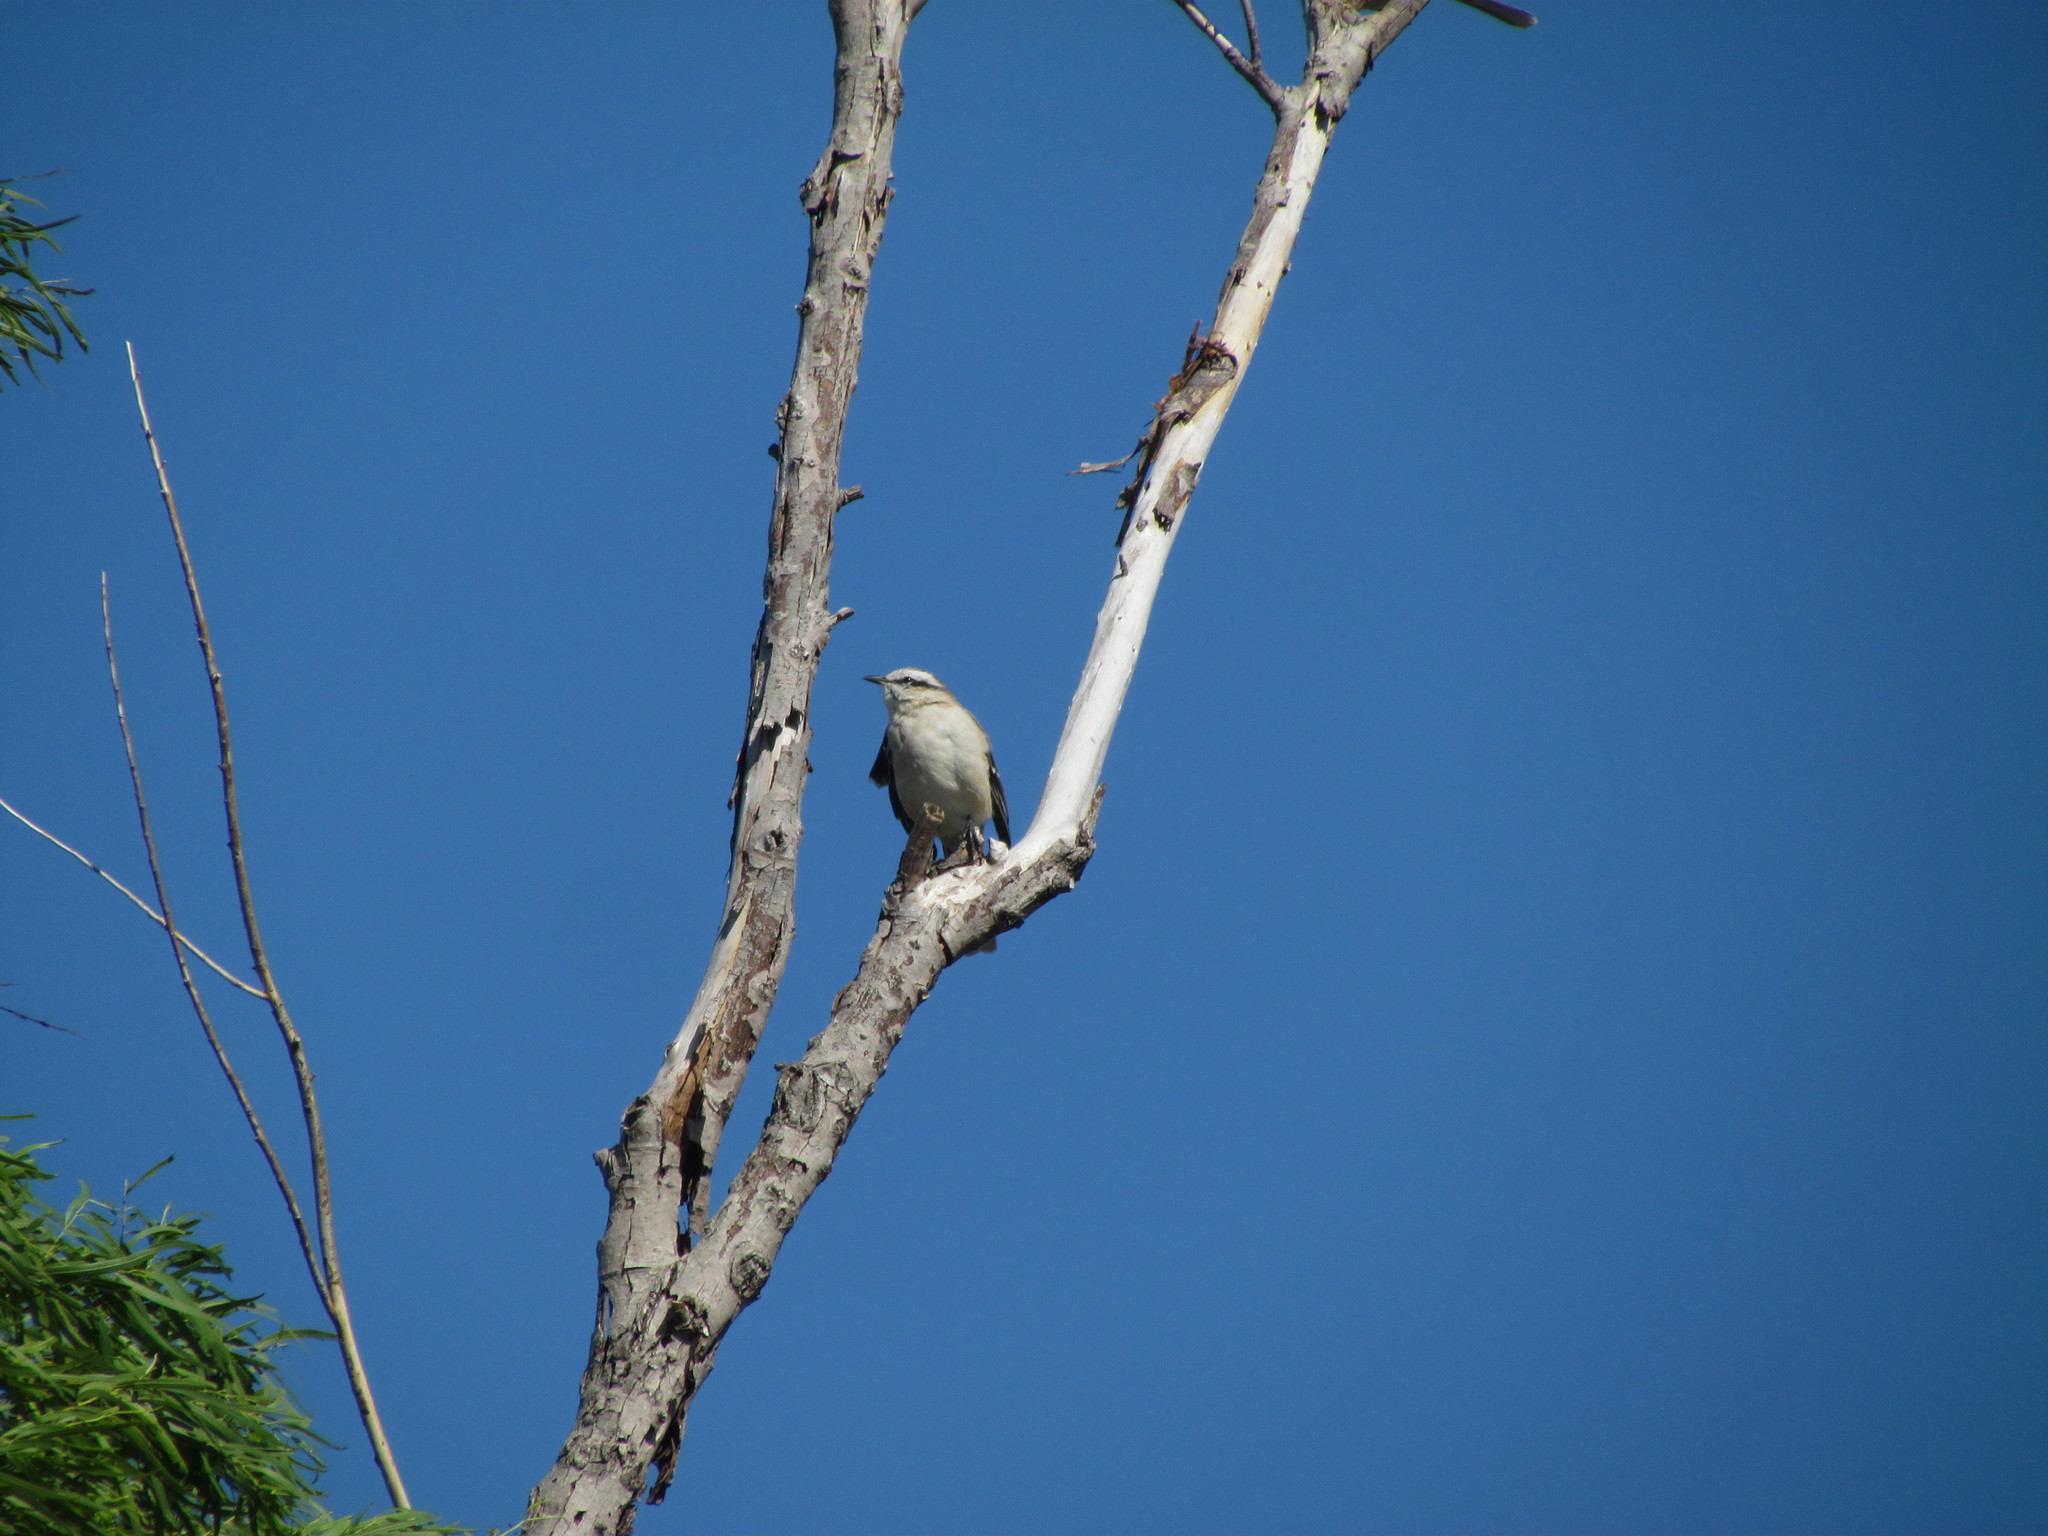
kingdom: Animalia
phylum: Chordata
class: Aves
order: Passeriformes
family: Mimidae
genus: Mimus
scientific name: Mimus saturninus
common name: Chalk-browed mockingbird
